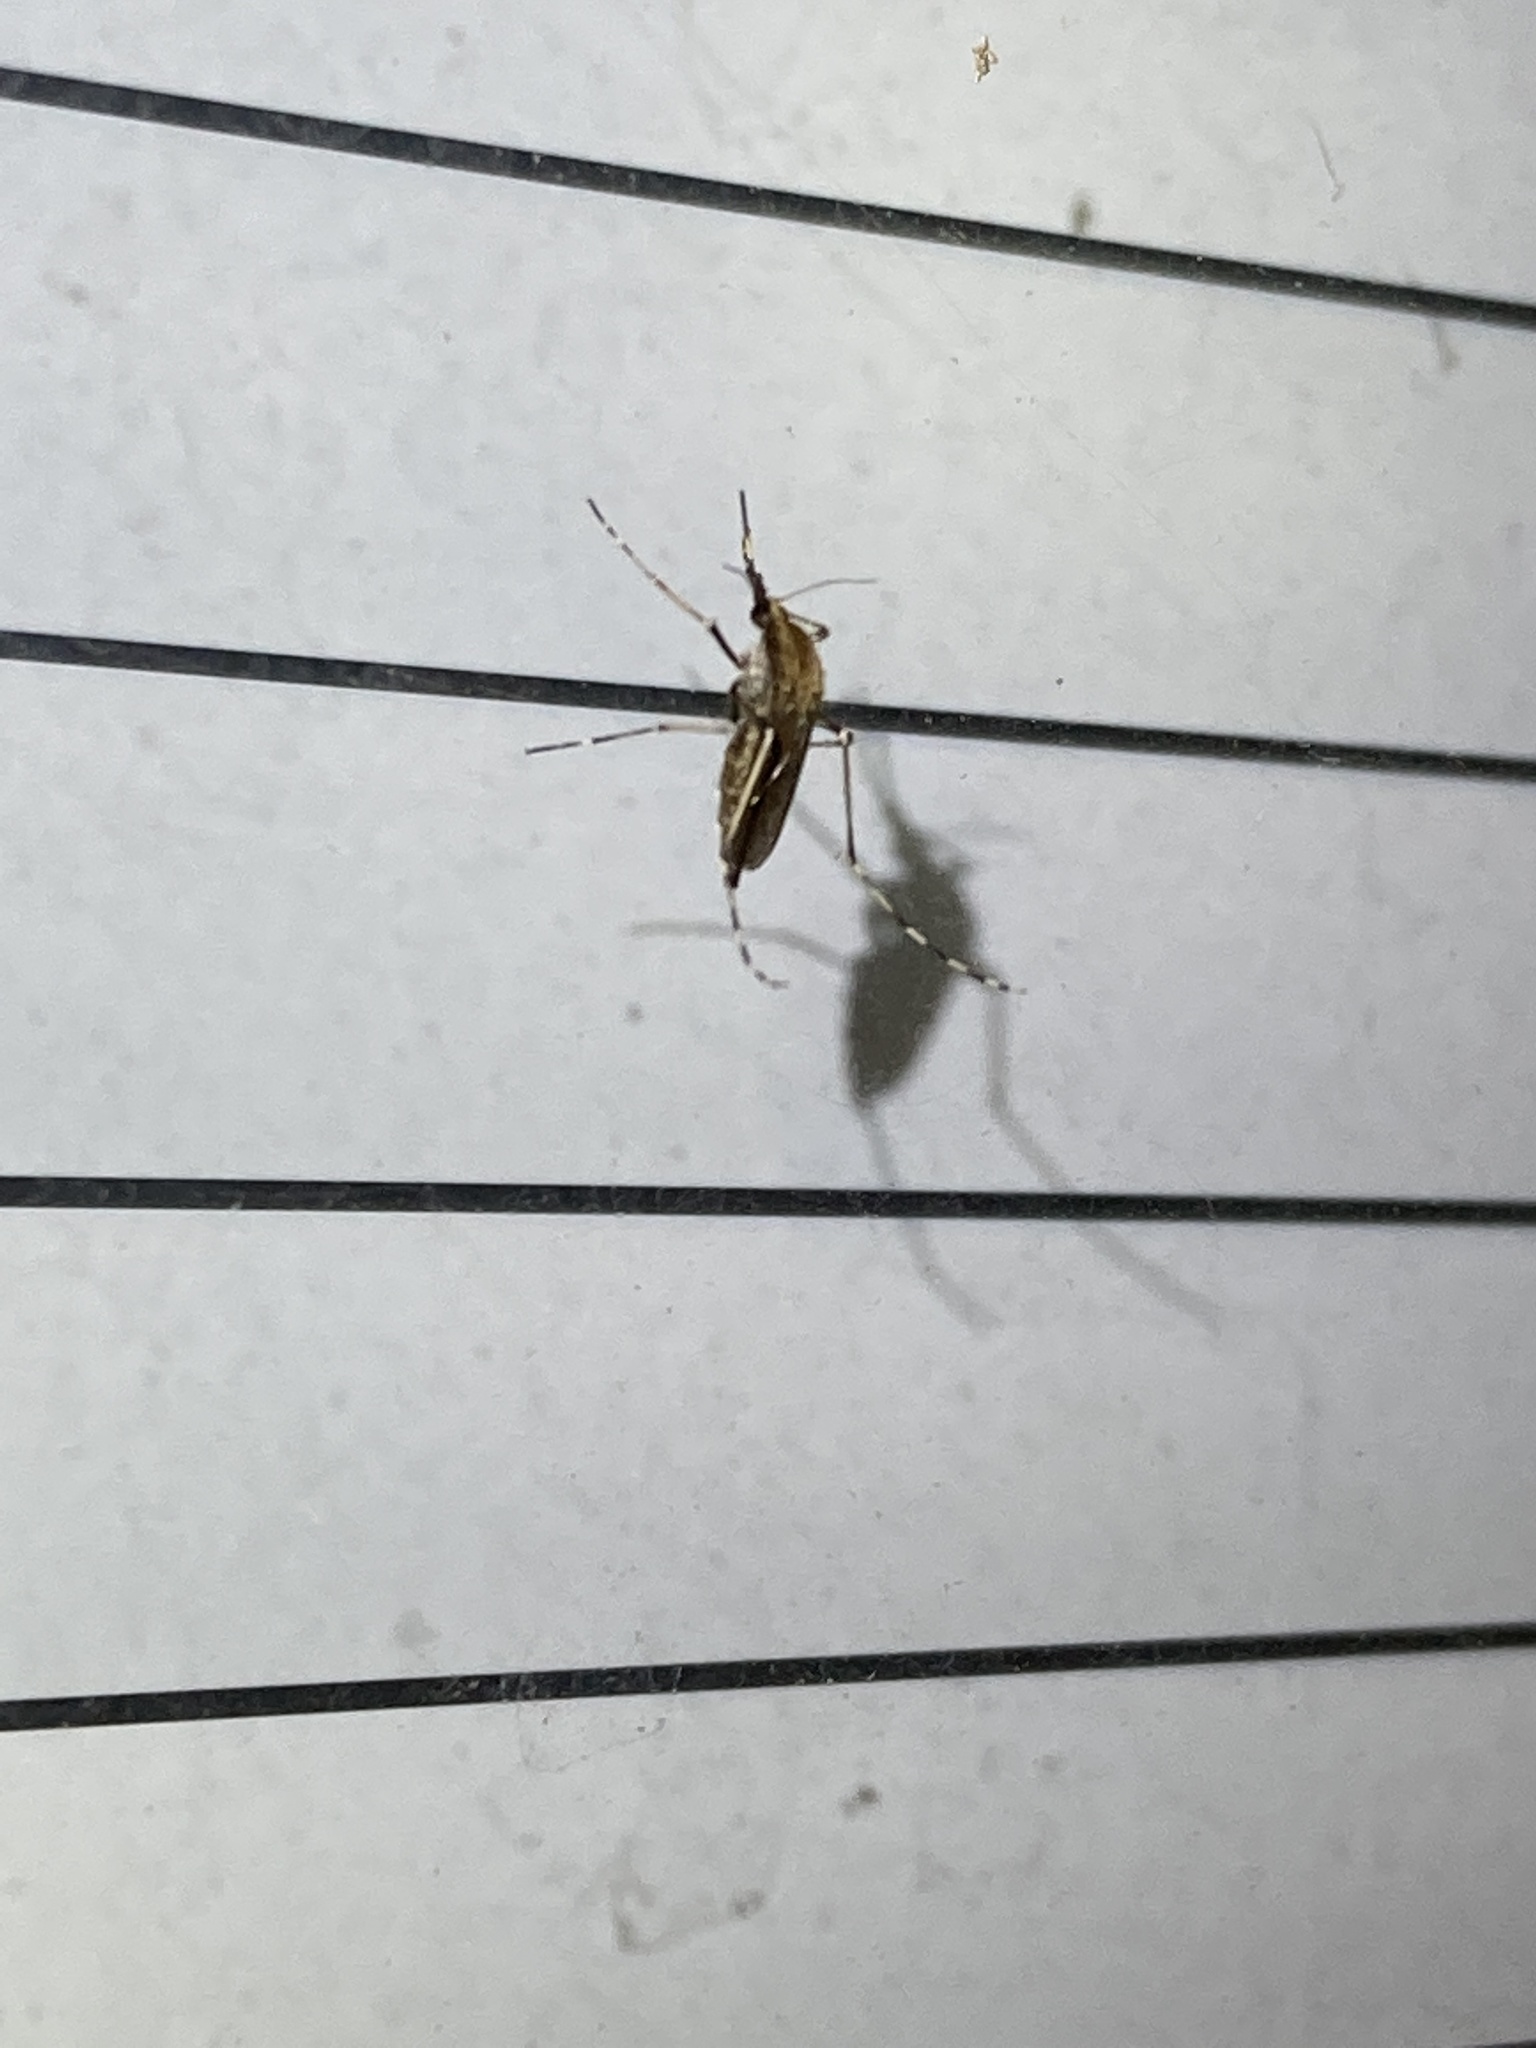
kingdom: Animalia
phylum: Arthropoda
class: Insecta
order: Diptera
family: Culicidae
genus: Aedes
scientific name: Aedes sollicitans
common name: Saltmarsh mosquito
